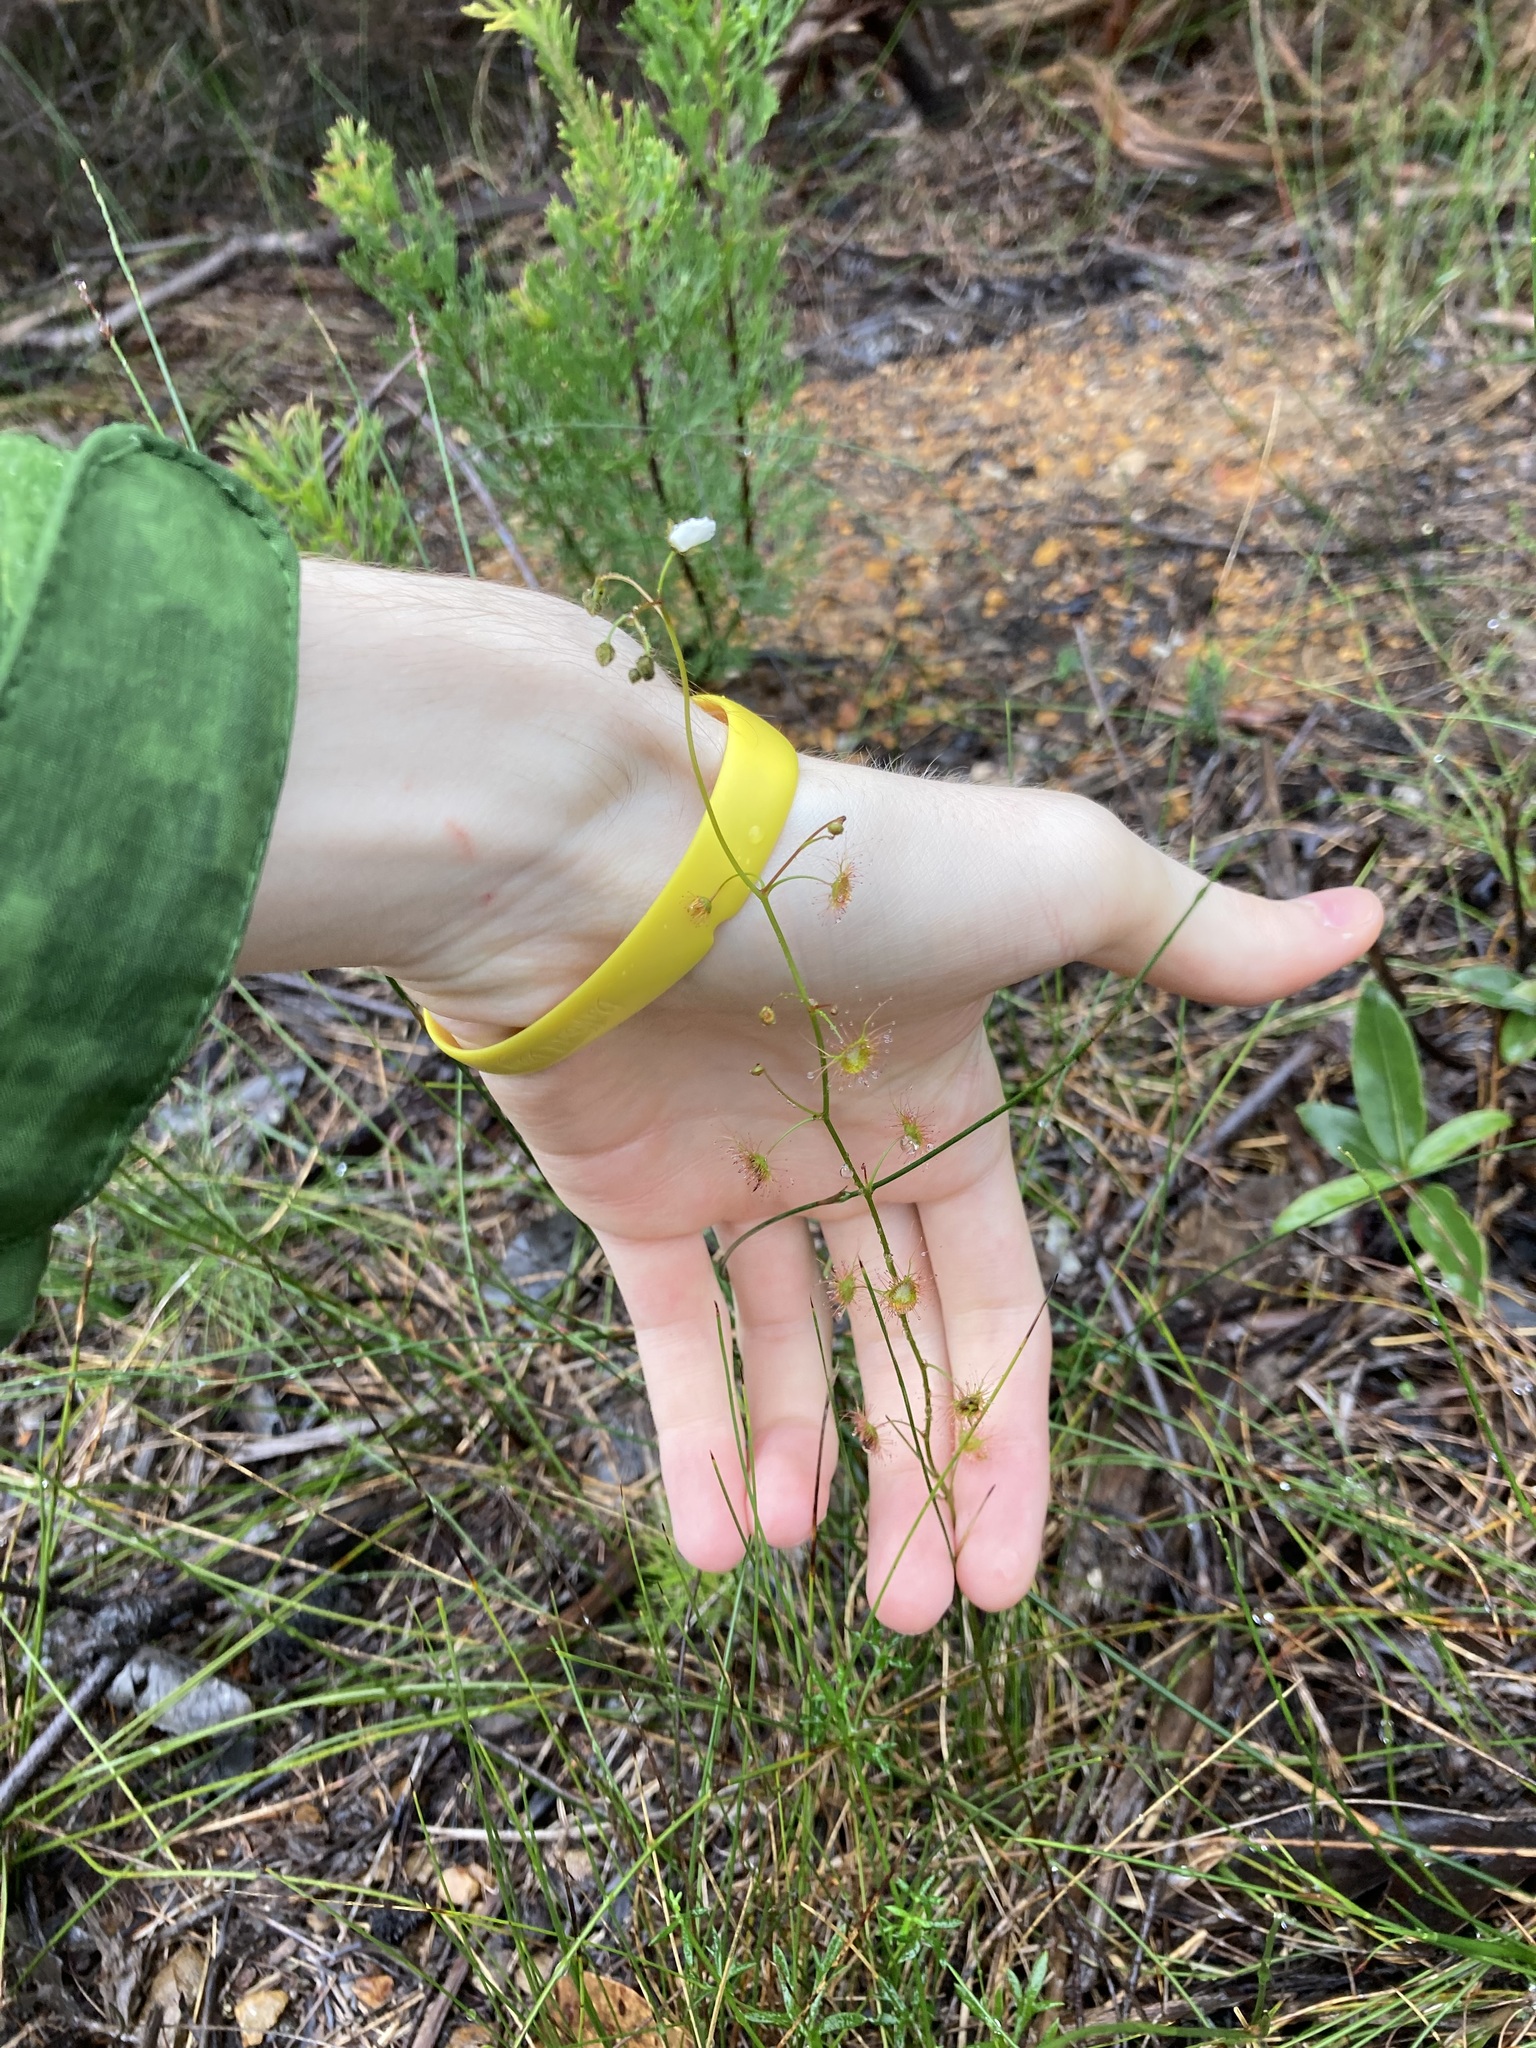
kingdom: Plantae
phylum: Tracheophyta
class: Magnoliopsida
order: Caryophyllales
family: Droseraceae
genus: Drosera
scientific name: Drosera peltata
